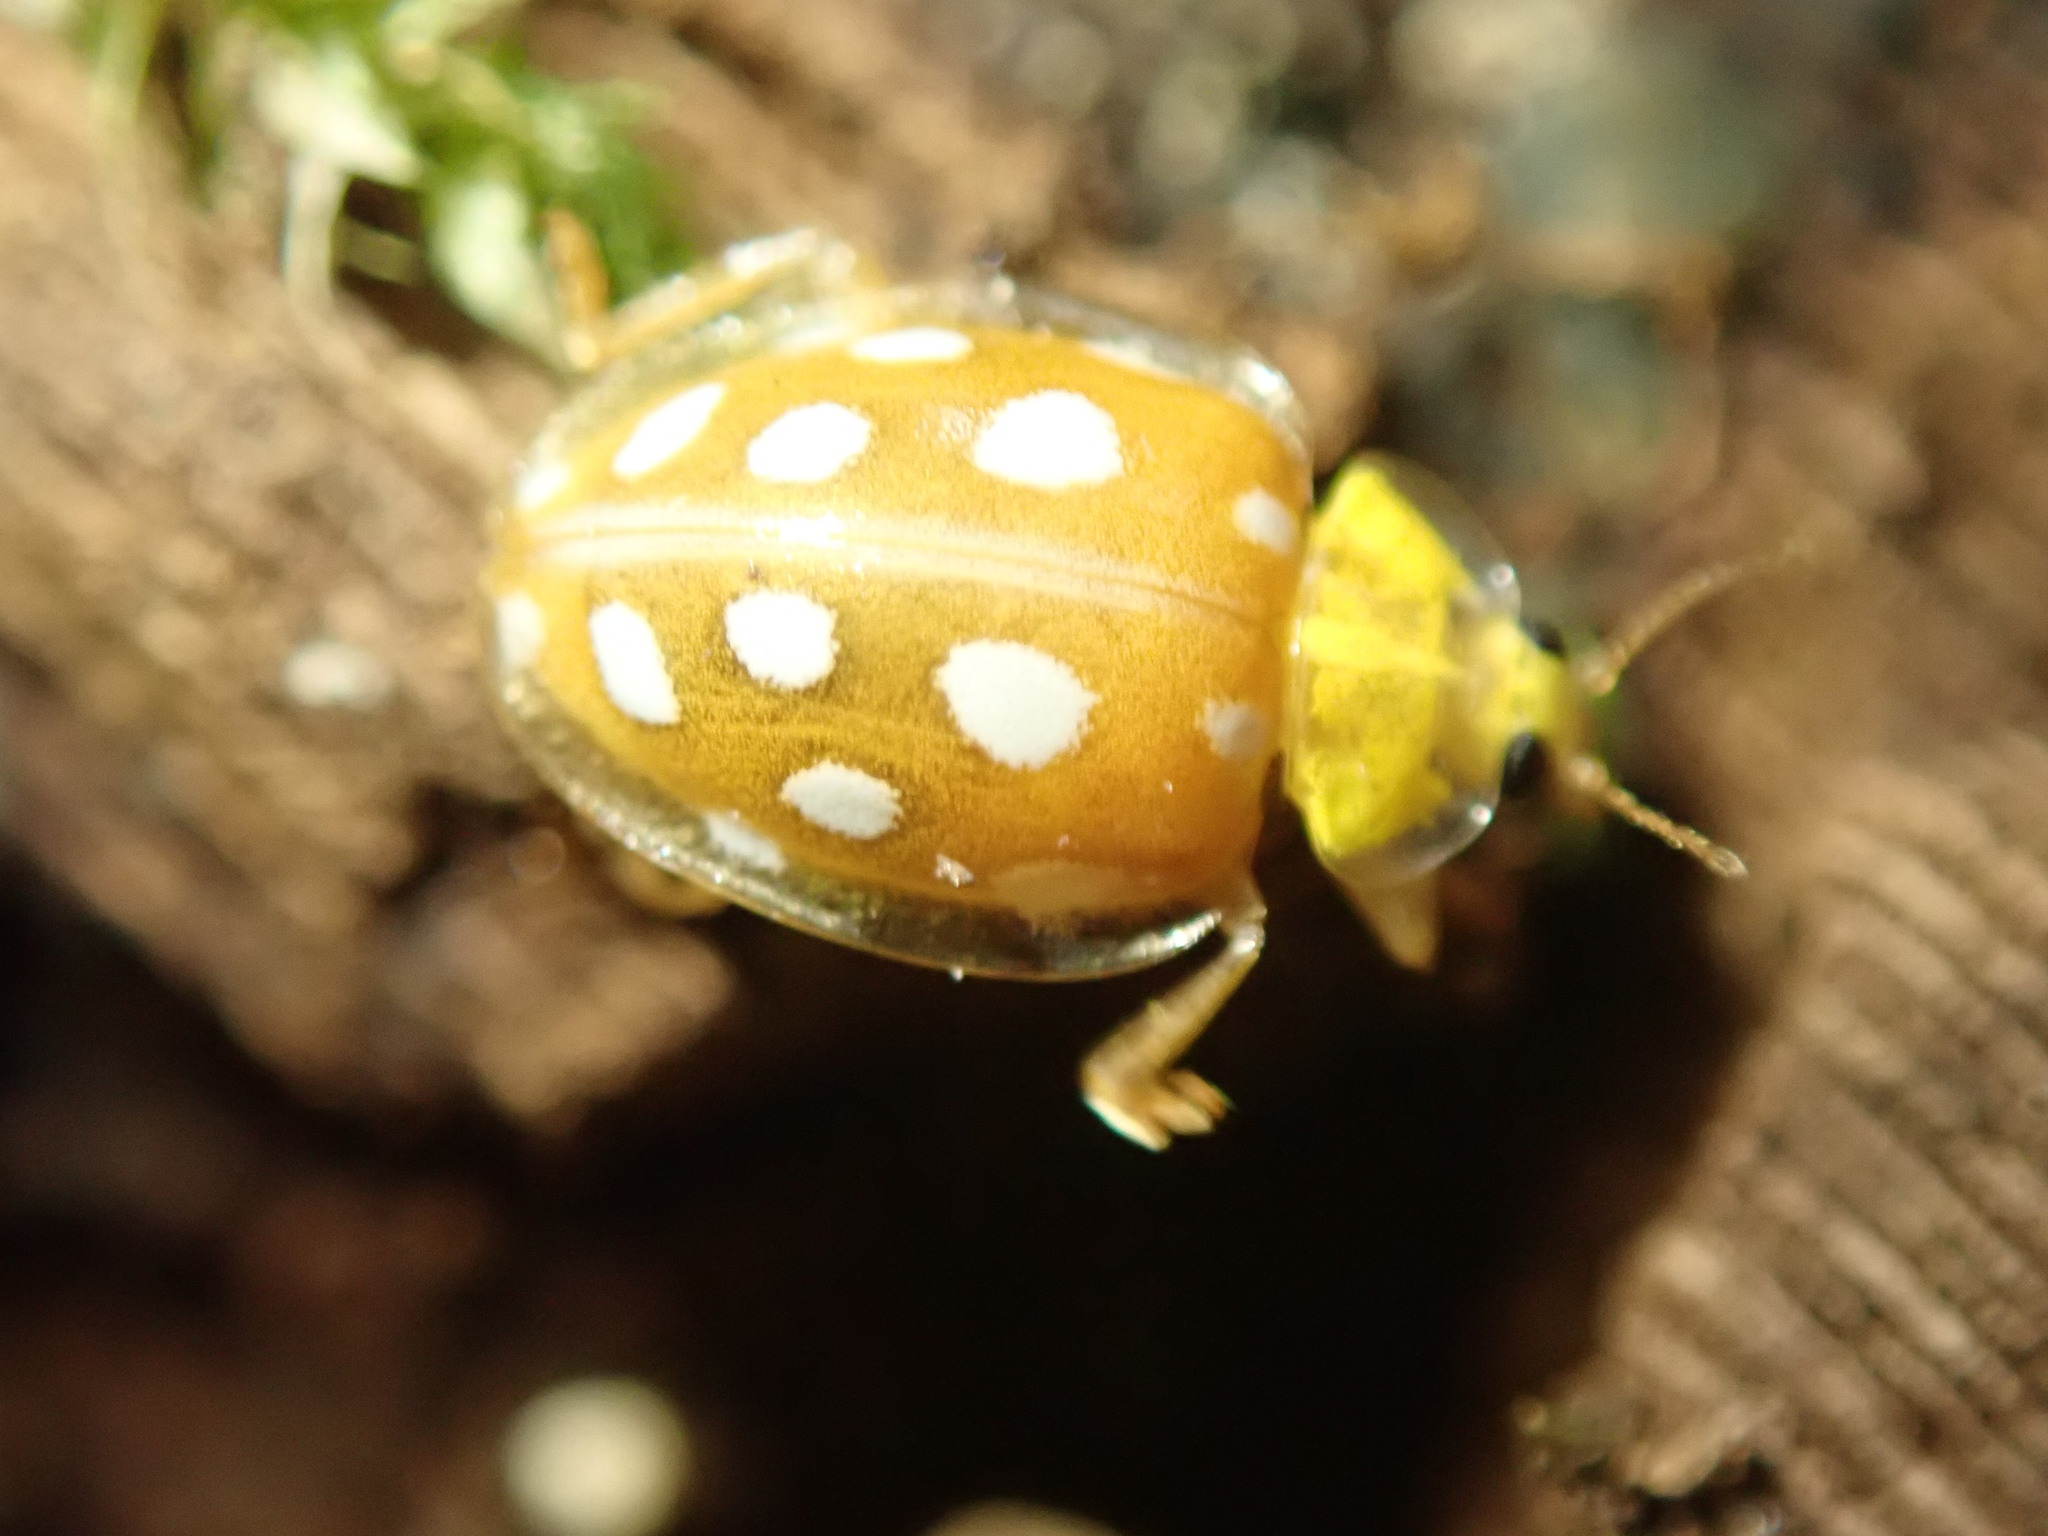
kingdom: Animalia
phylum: Arthropoda
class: Insecta
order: Coleoptera
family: Coccinellidae
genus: Halyzia
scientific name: Halyzia sedecimguttata
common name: Orange ladybird
